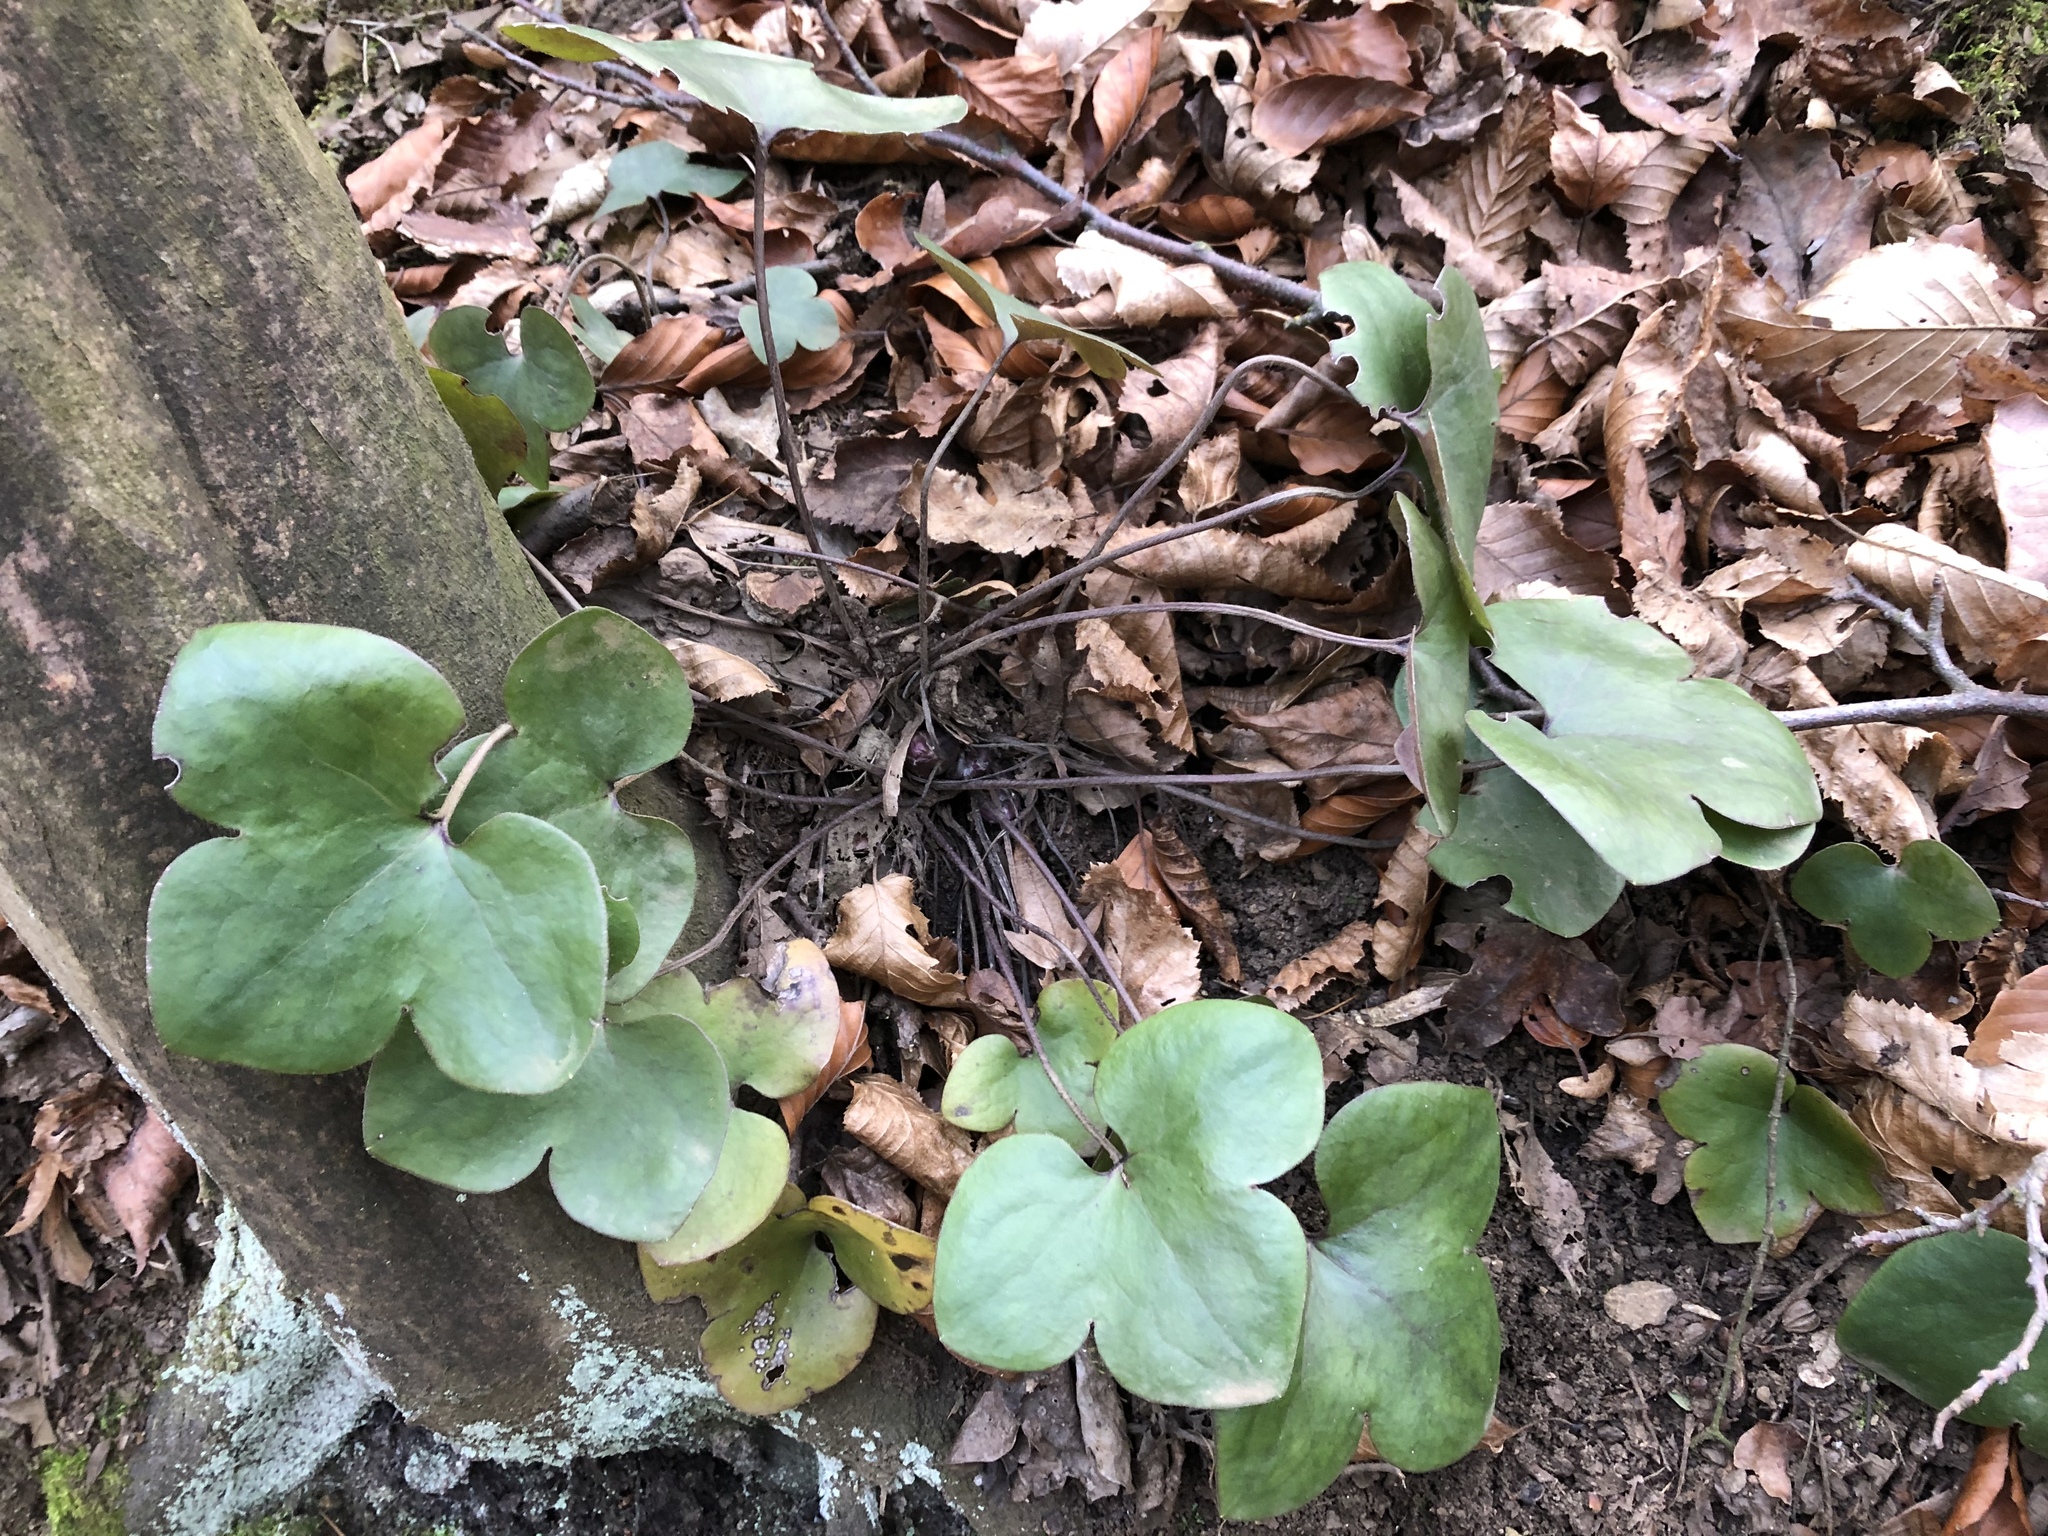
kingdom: Plantae
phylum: Tracheophyta
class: Magnoliopsida
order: Ranunculales
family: Ranunculaceae
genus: Hepatica
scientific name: Hepatica nobilis
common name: Liverleaf
